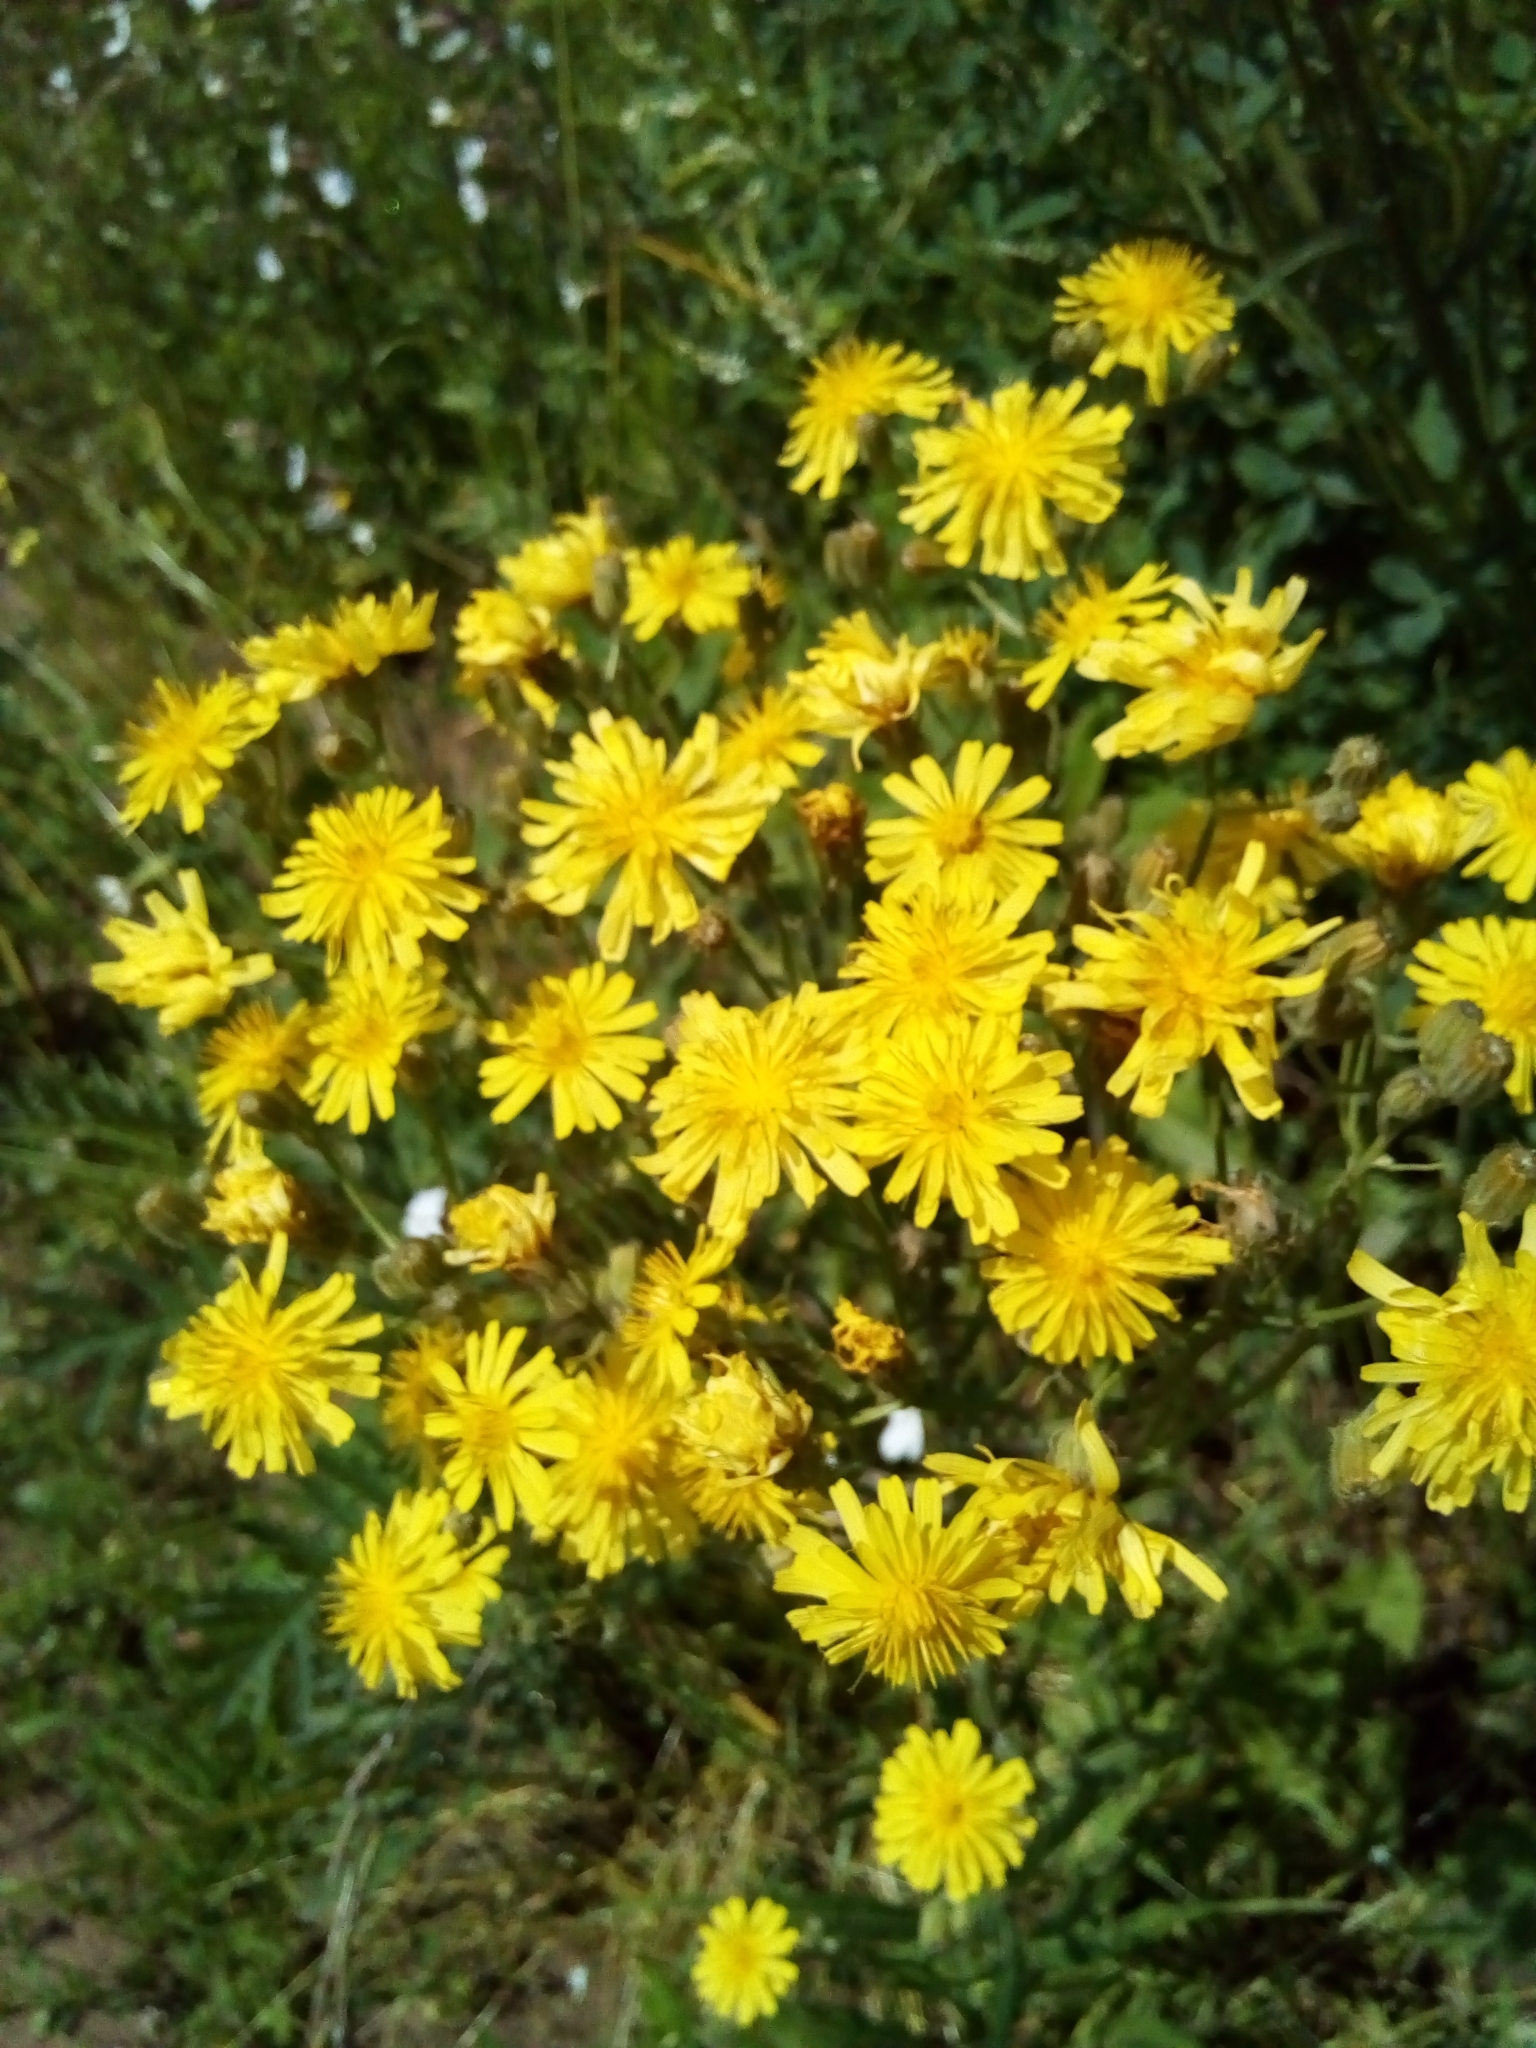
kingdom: Plantae
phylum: Tracheophyta
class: Magnoliopsida
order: Asterales
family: Asteraceae
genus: Crepis
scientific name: Crepis tectorum
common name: Narrow-leaved hawk's-beard
